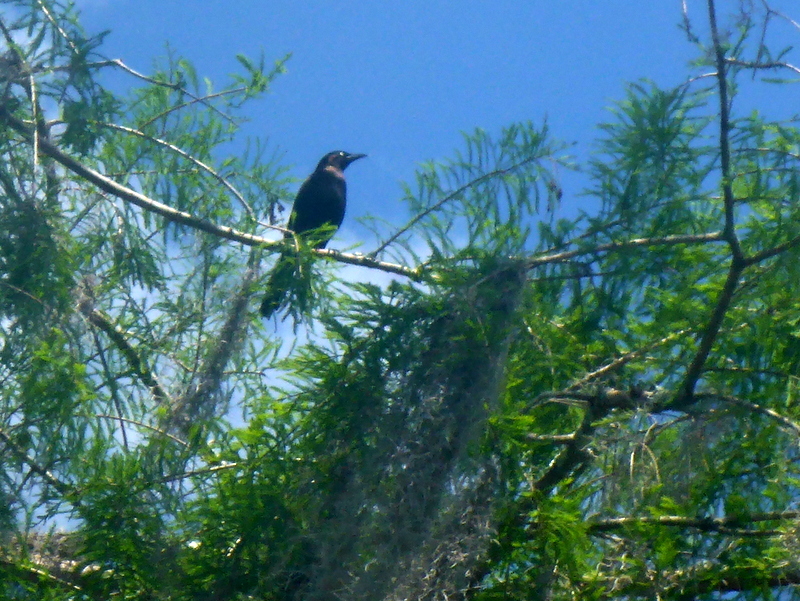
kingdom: Animalia
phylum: Chordata
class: Aves
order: Passeriformes
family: Icteridae
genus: Quiscalus
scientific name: Quiscalus major
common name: Boat-tailed grackle
